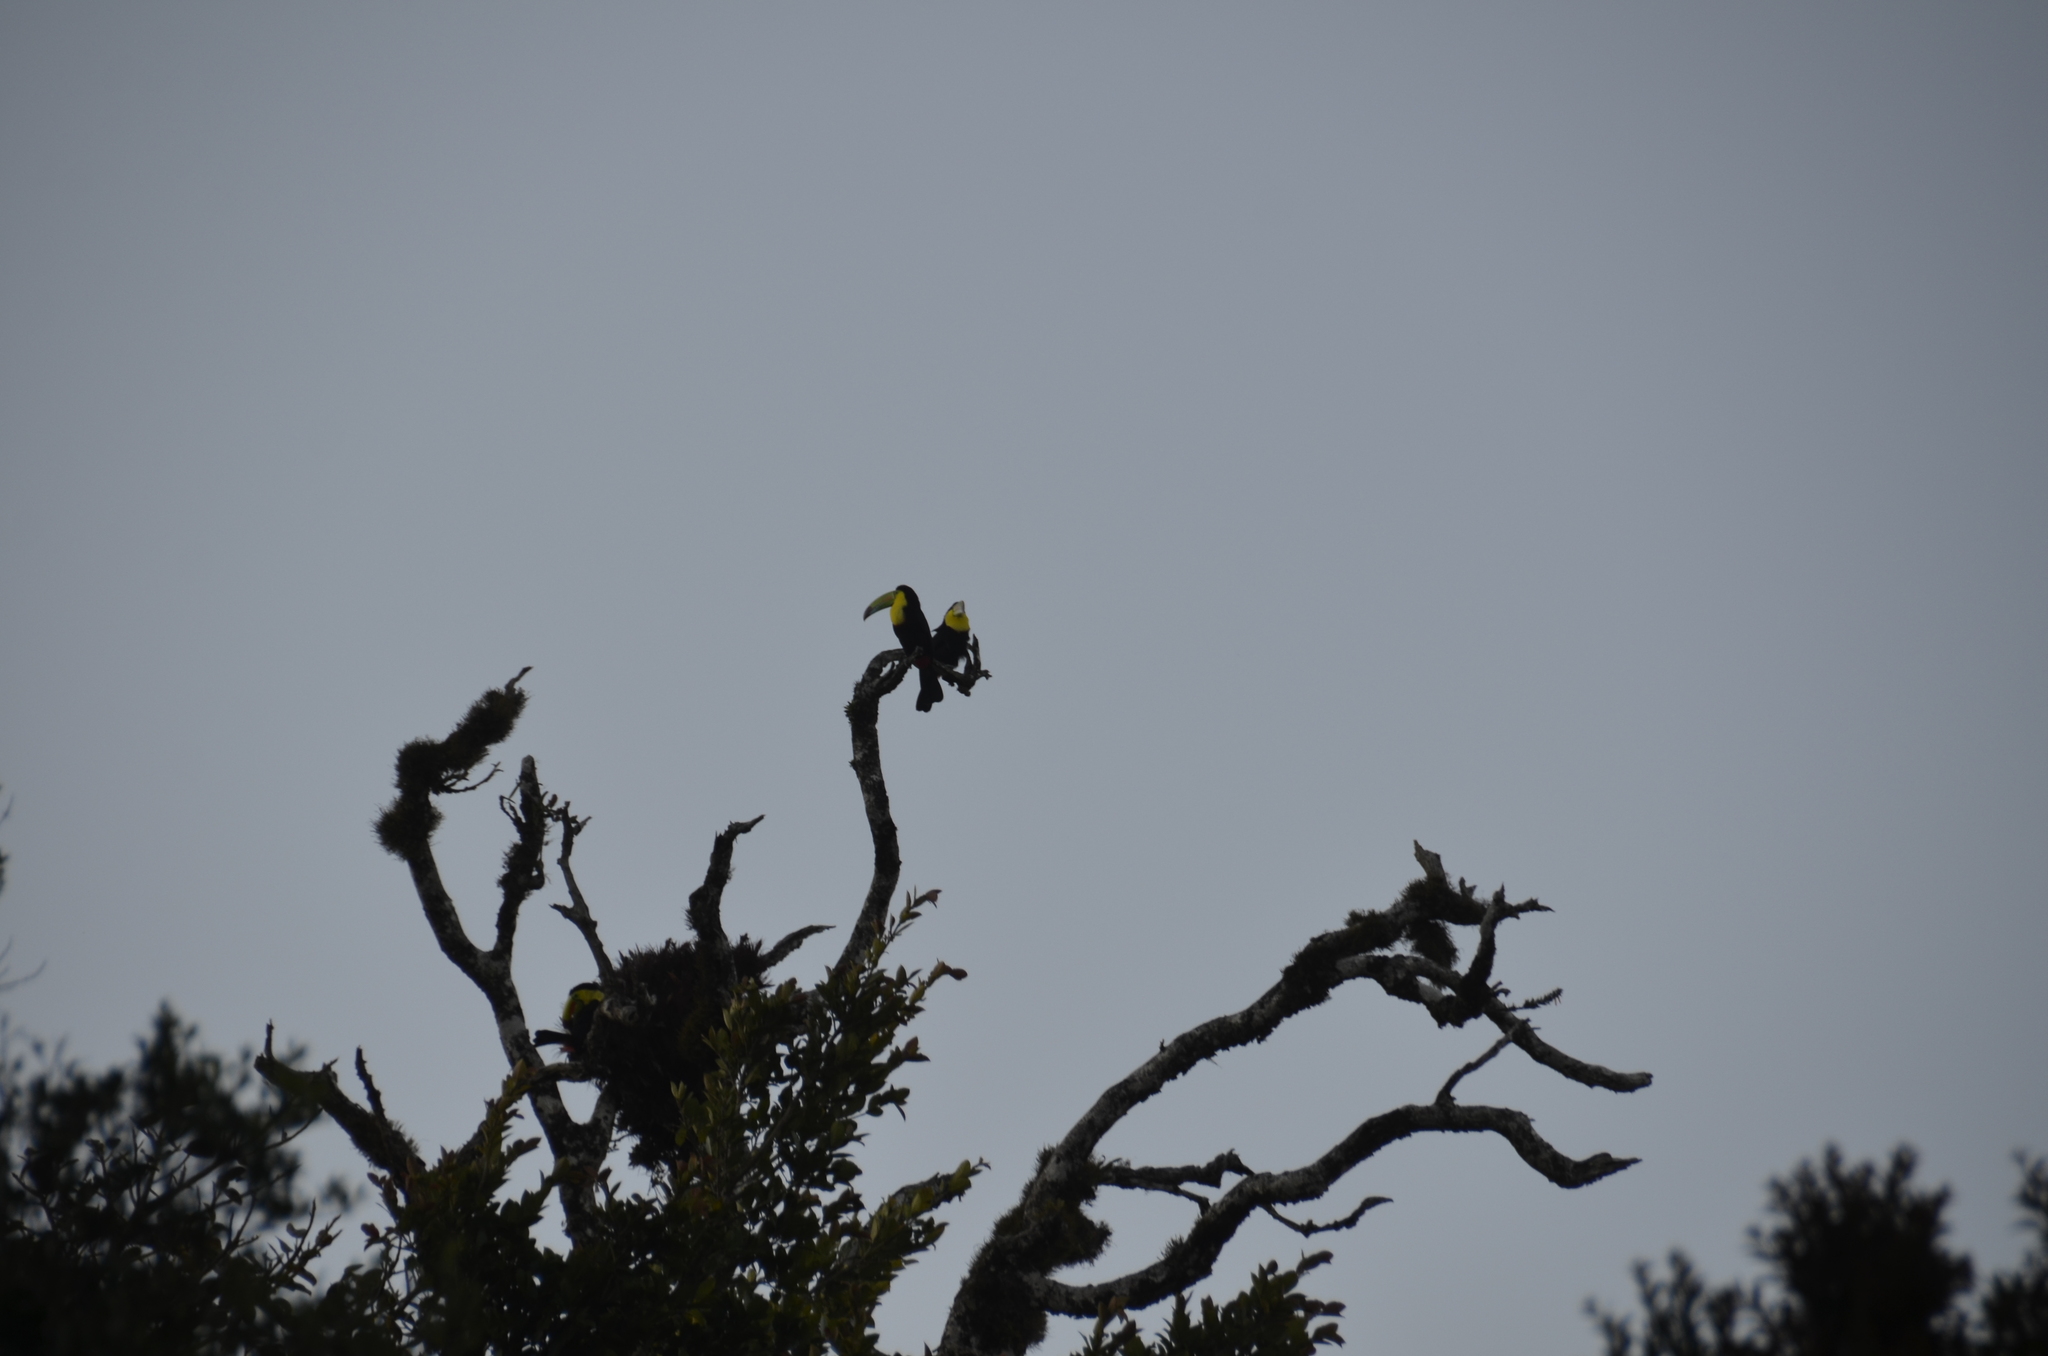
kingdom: Animalia
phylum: Chordata
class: Aves
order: Piciformes
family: Ramphastidae
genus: Ramphastos
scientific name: Ramphastos sulfuratus
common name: Keel-billed toucan
